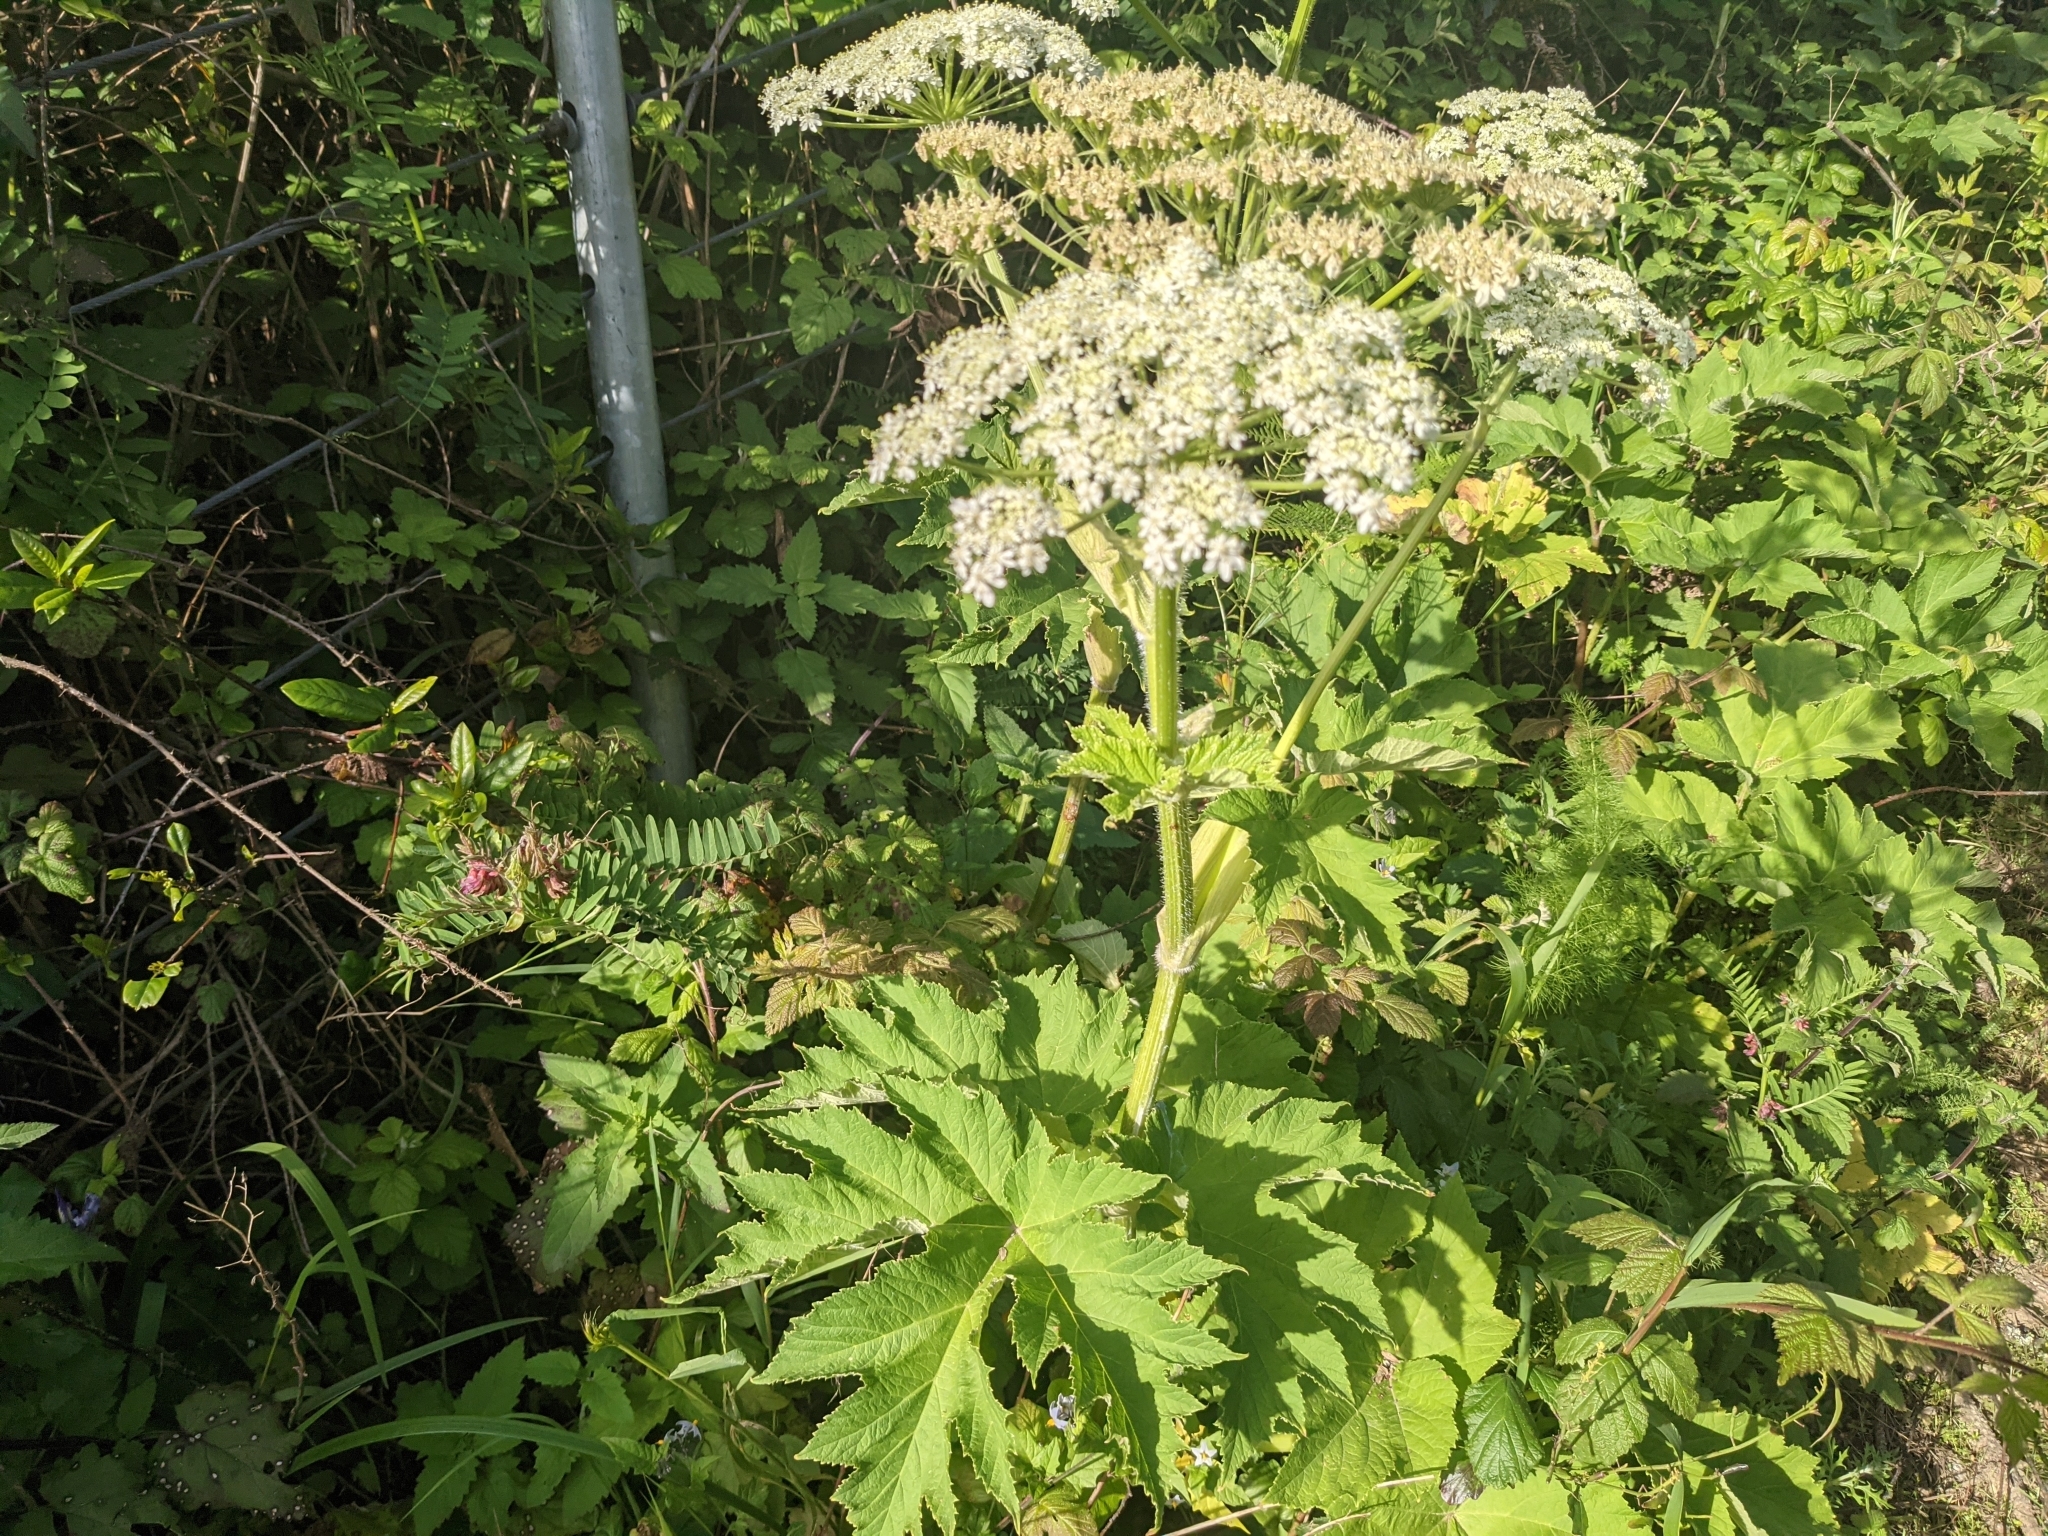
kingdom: Plantae
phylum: Tracheophyta
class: Magnoliopsida
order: Apiales
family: Apiaceae
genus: Heracleum
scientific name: Heracleum maximum
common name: American cow parsnip
